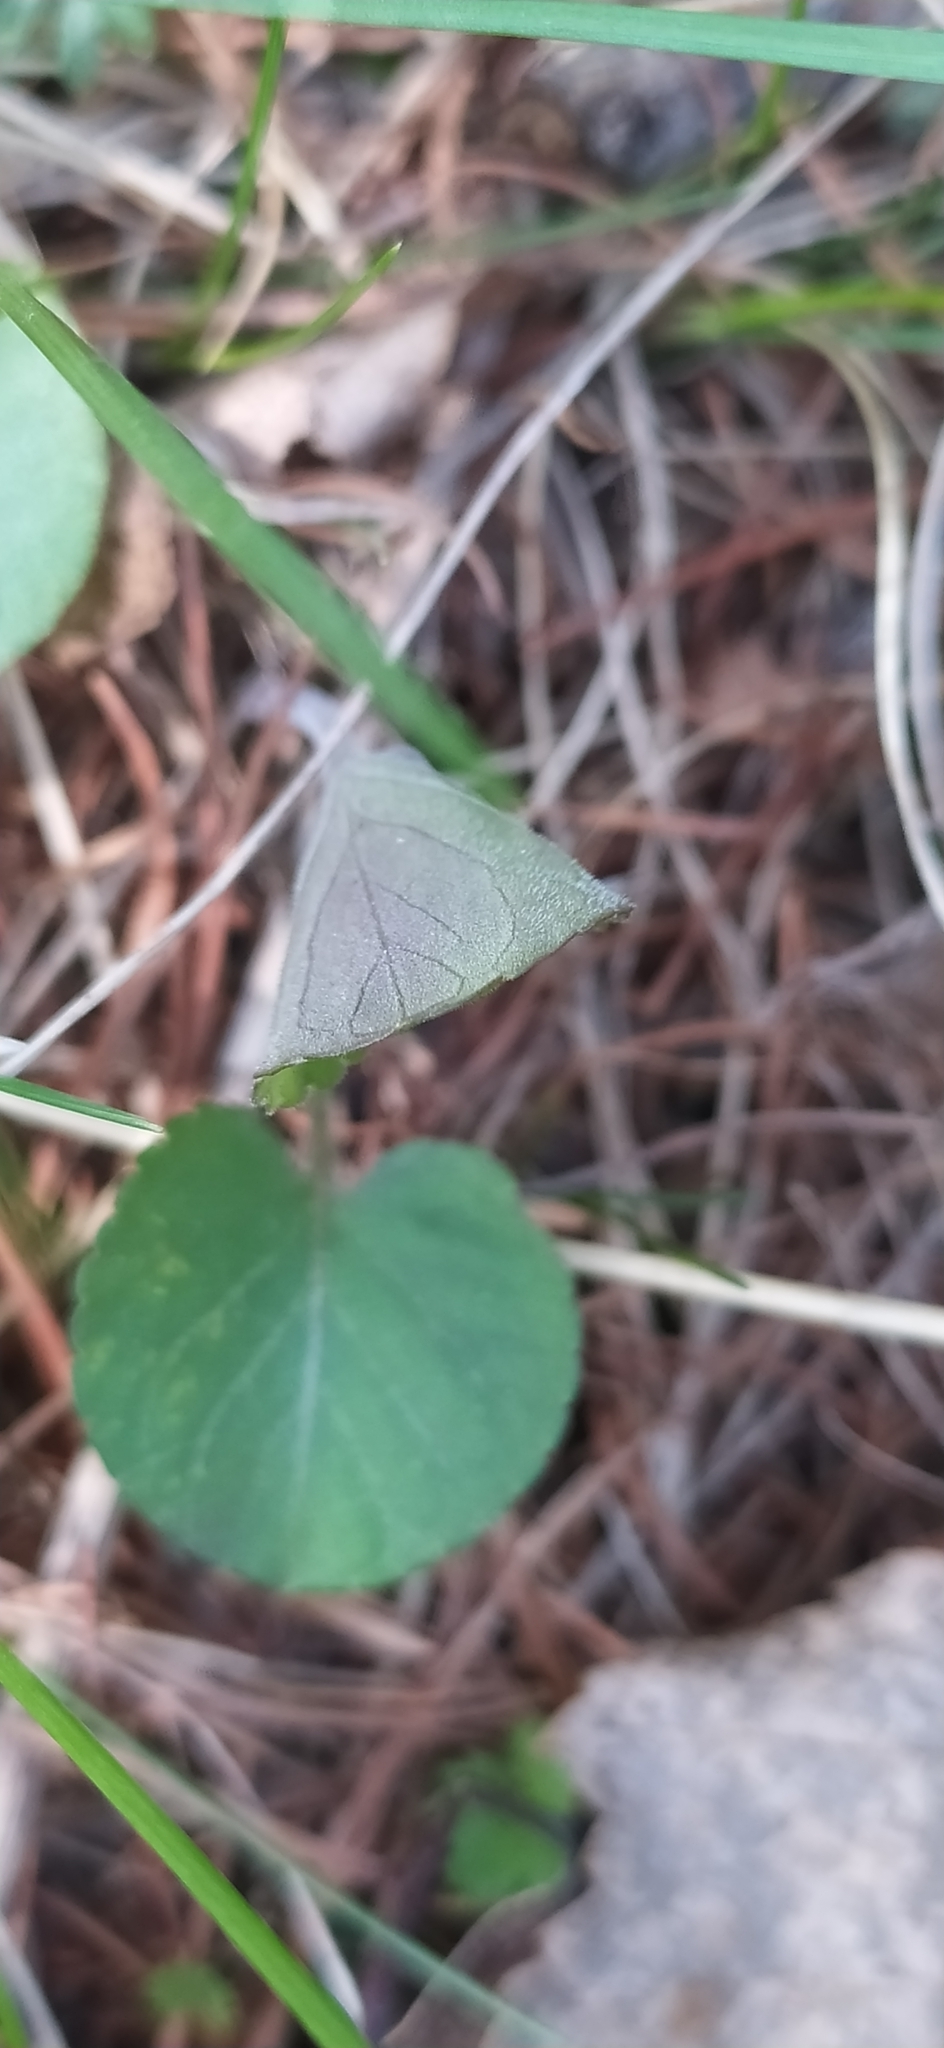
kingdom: Plantae
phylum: Tracheophyta
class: Magnoliopsida
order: Malpighiales
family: Violaceae
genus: Viola
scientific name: Viola rupestris
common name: Teesdale violet
